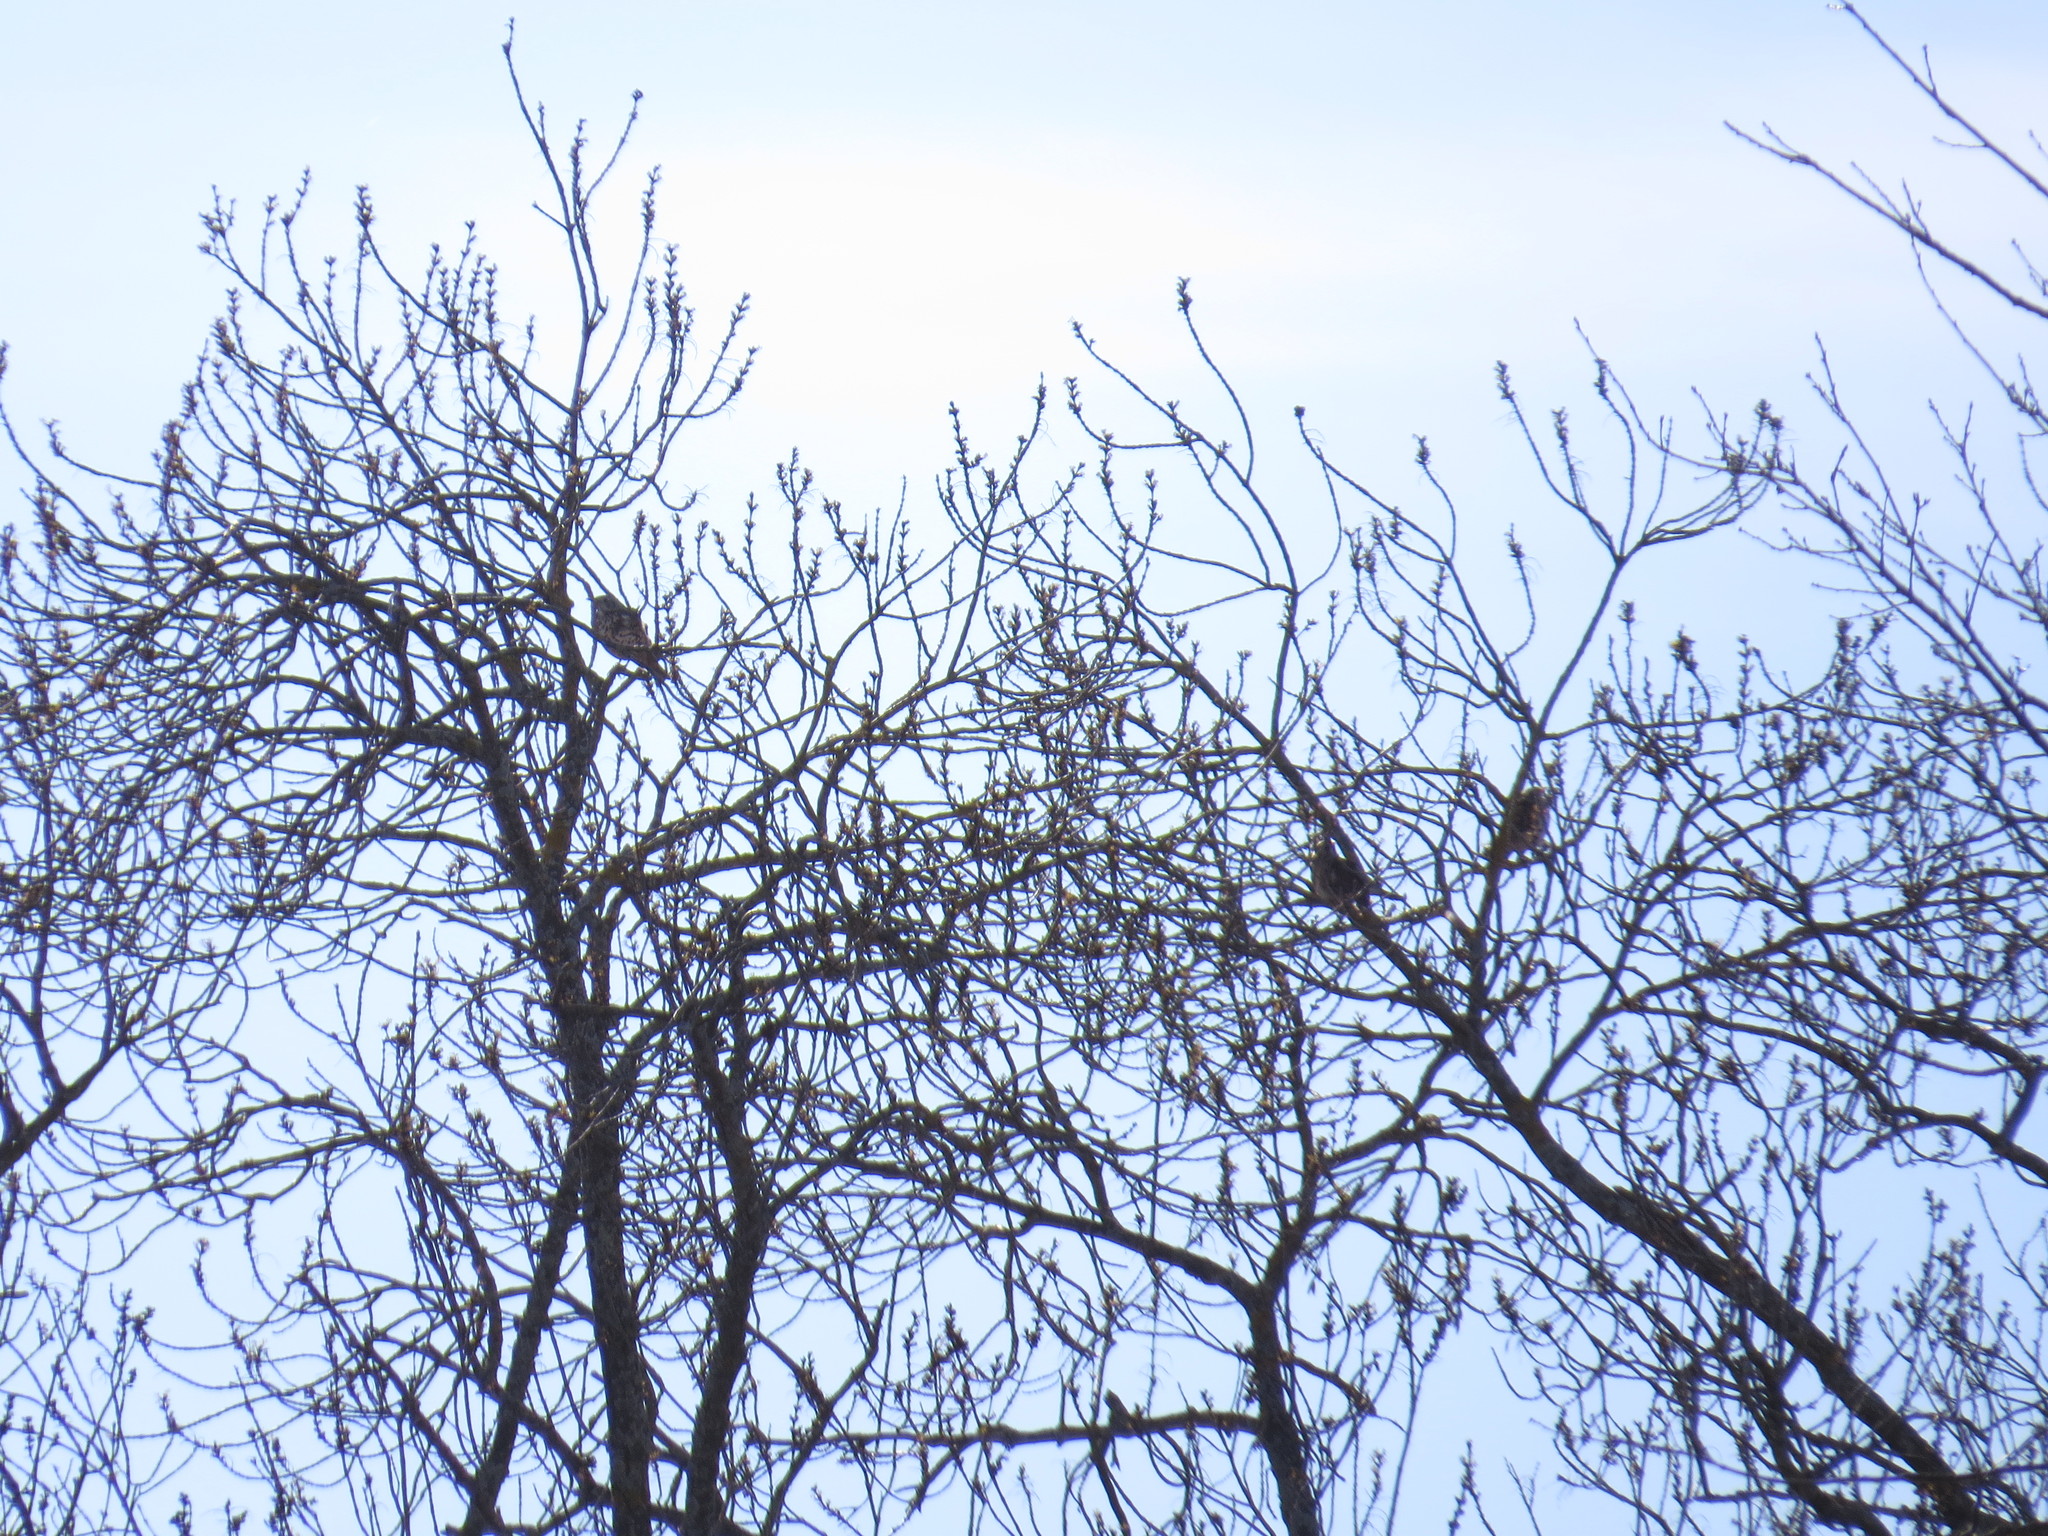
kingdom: Animalia
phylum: Chordata
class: Aves
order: Passeriformes
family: Turdidae
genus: Turdus
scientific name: Turdus viscivorus
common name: Mistle thrush
